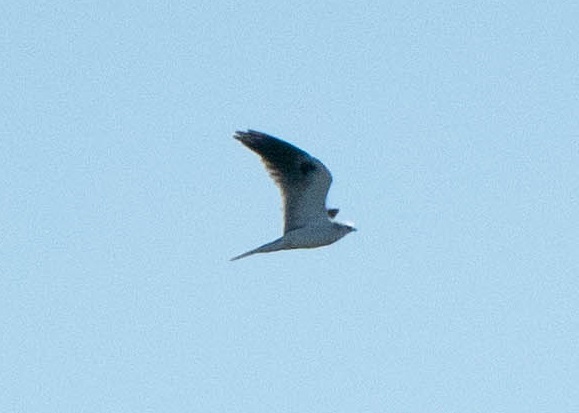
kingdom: Animalia
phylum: Chordata
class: Aves
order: Accipitriformes
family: Accipitridae
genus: Elanus
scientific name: Elanus leucurus
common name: White-tailed kite
